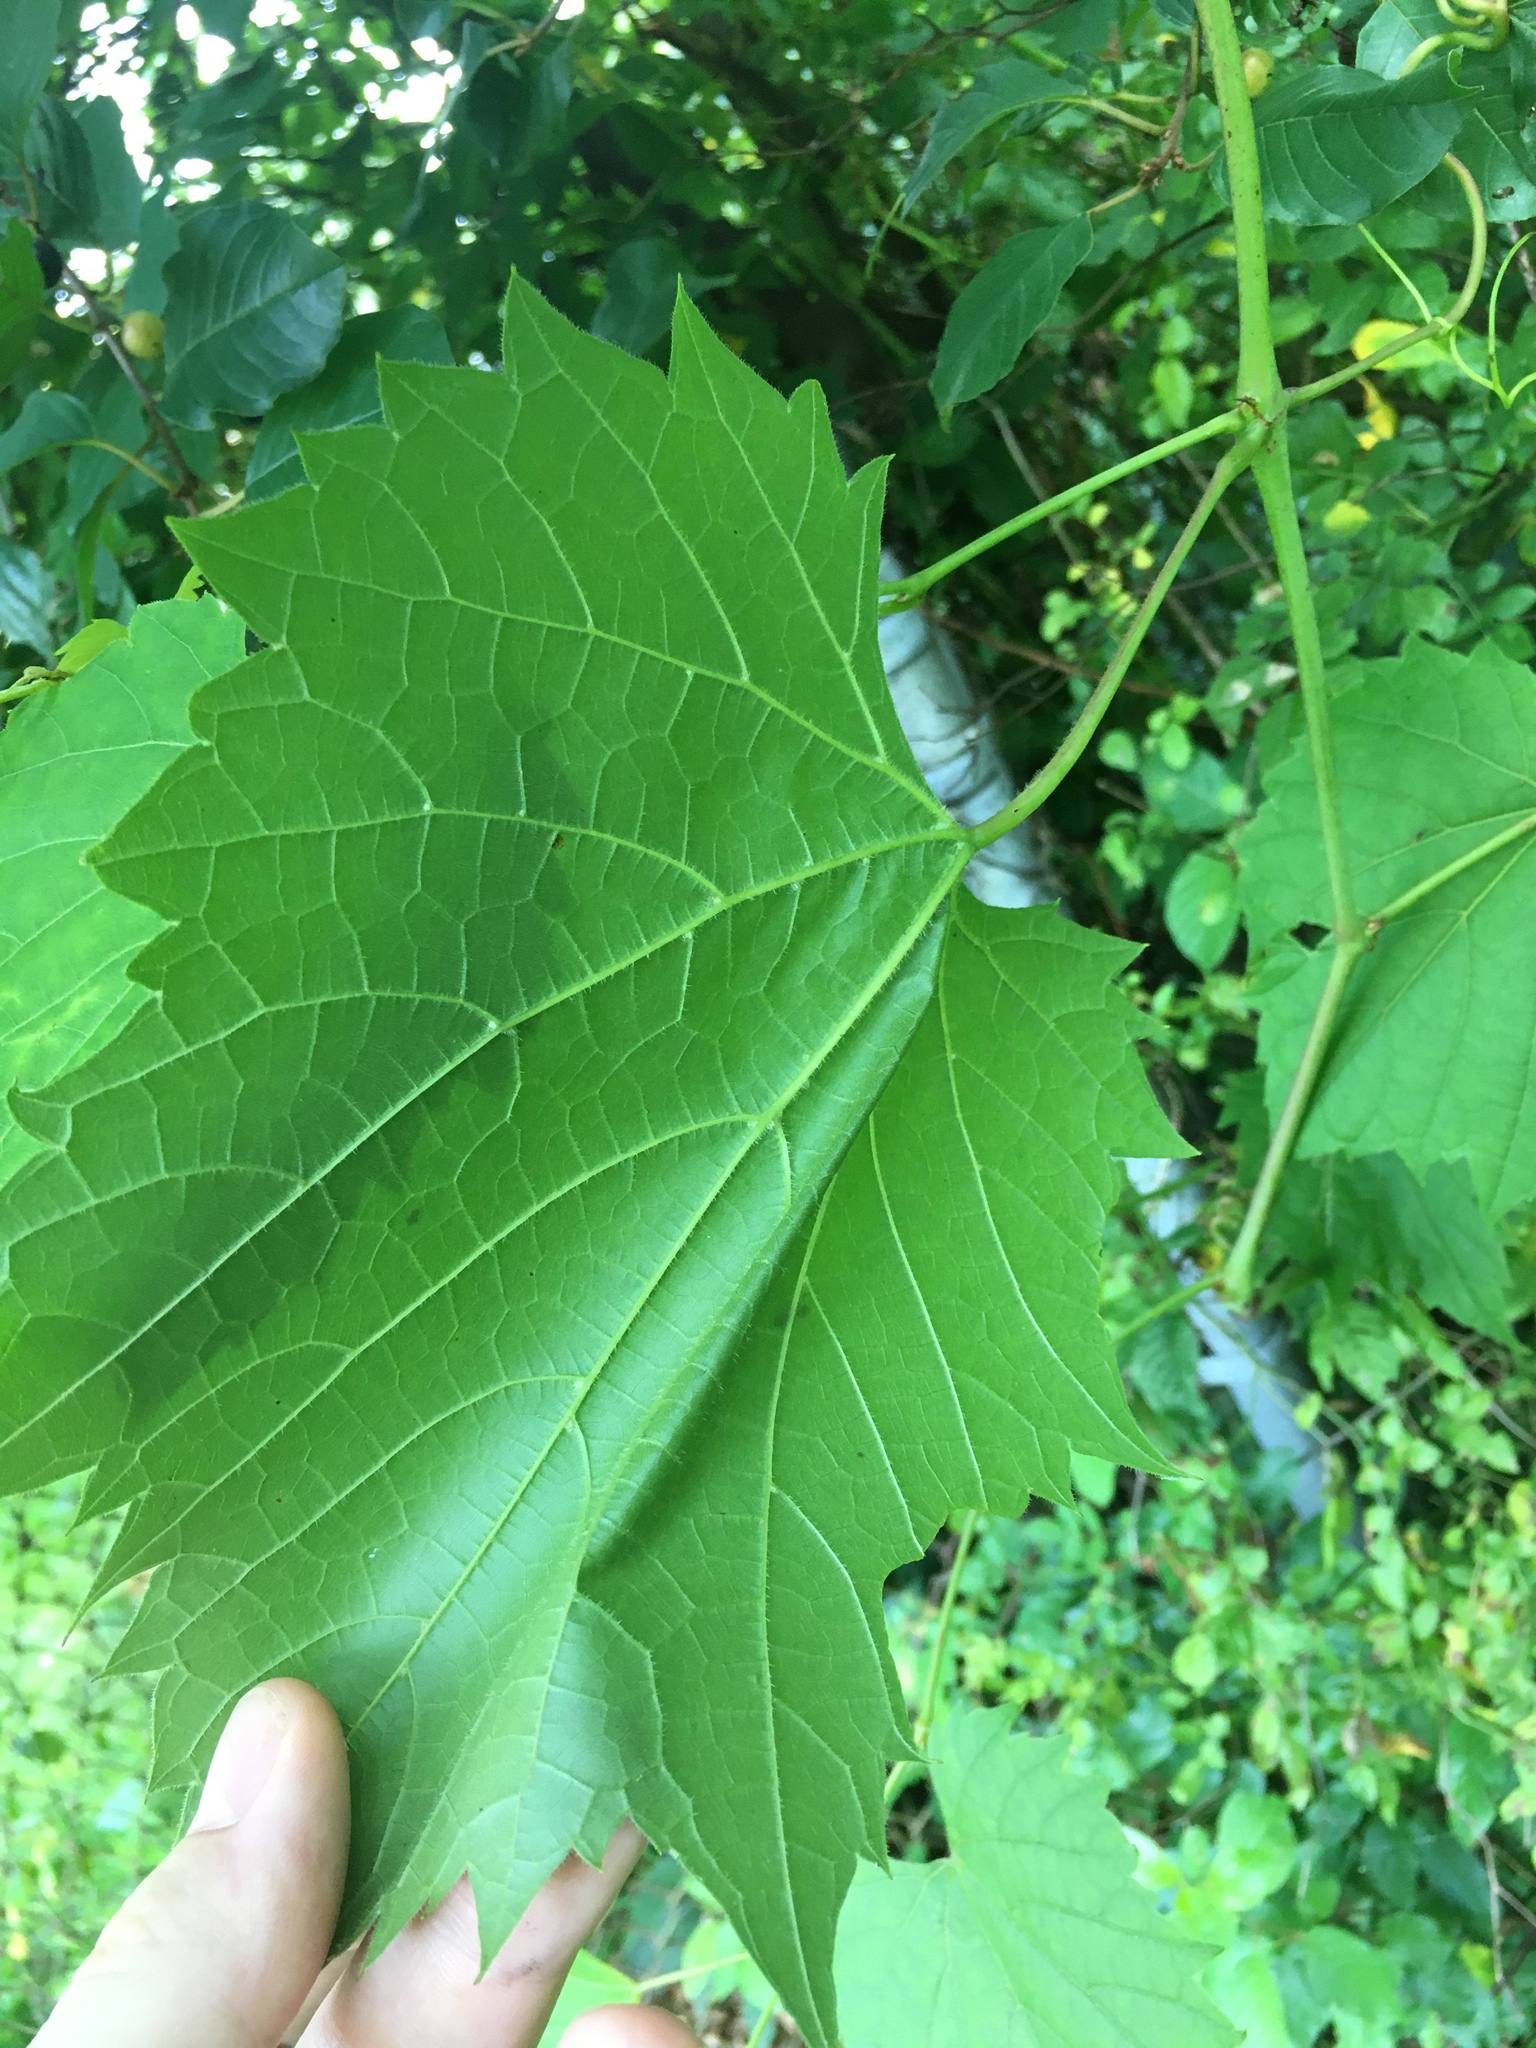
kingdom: Plantae
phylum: Tracheophyta
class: Magnoliopsida
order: Vitales
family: Vitaceae
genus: Vitis
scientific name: Vitis riparia
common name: Frost grape
